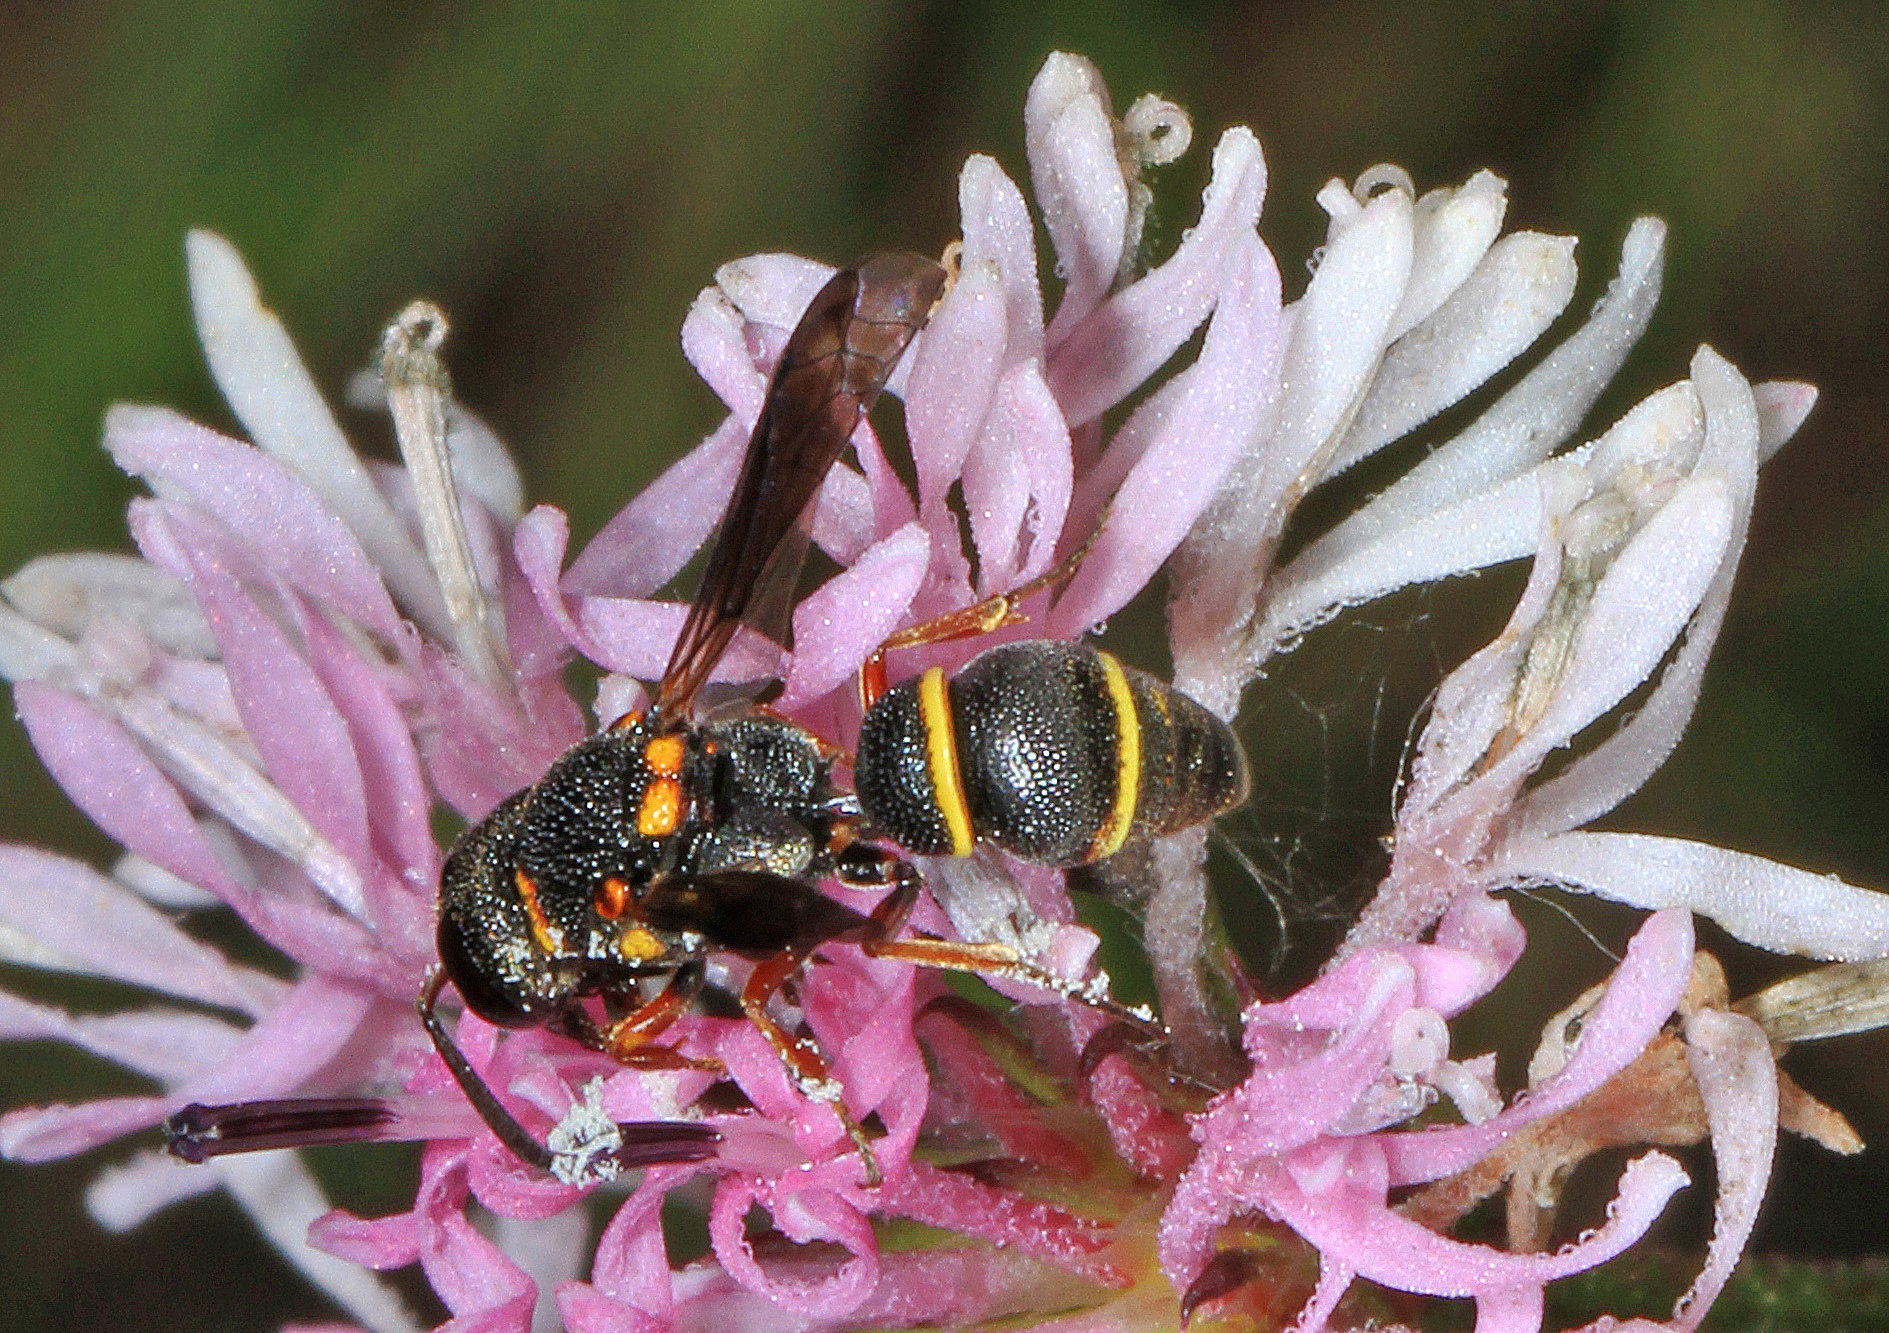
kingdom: Animalia
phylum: Arthropoda
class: Insecta
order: Hymenoptera
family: Eumenidae
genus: Cyrtolabulus
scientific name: Cyrtolabulus mutinensis
